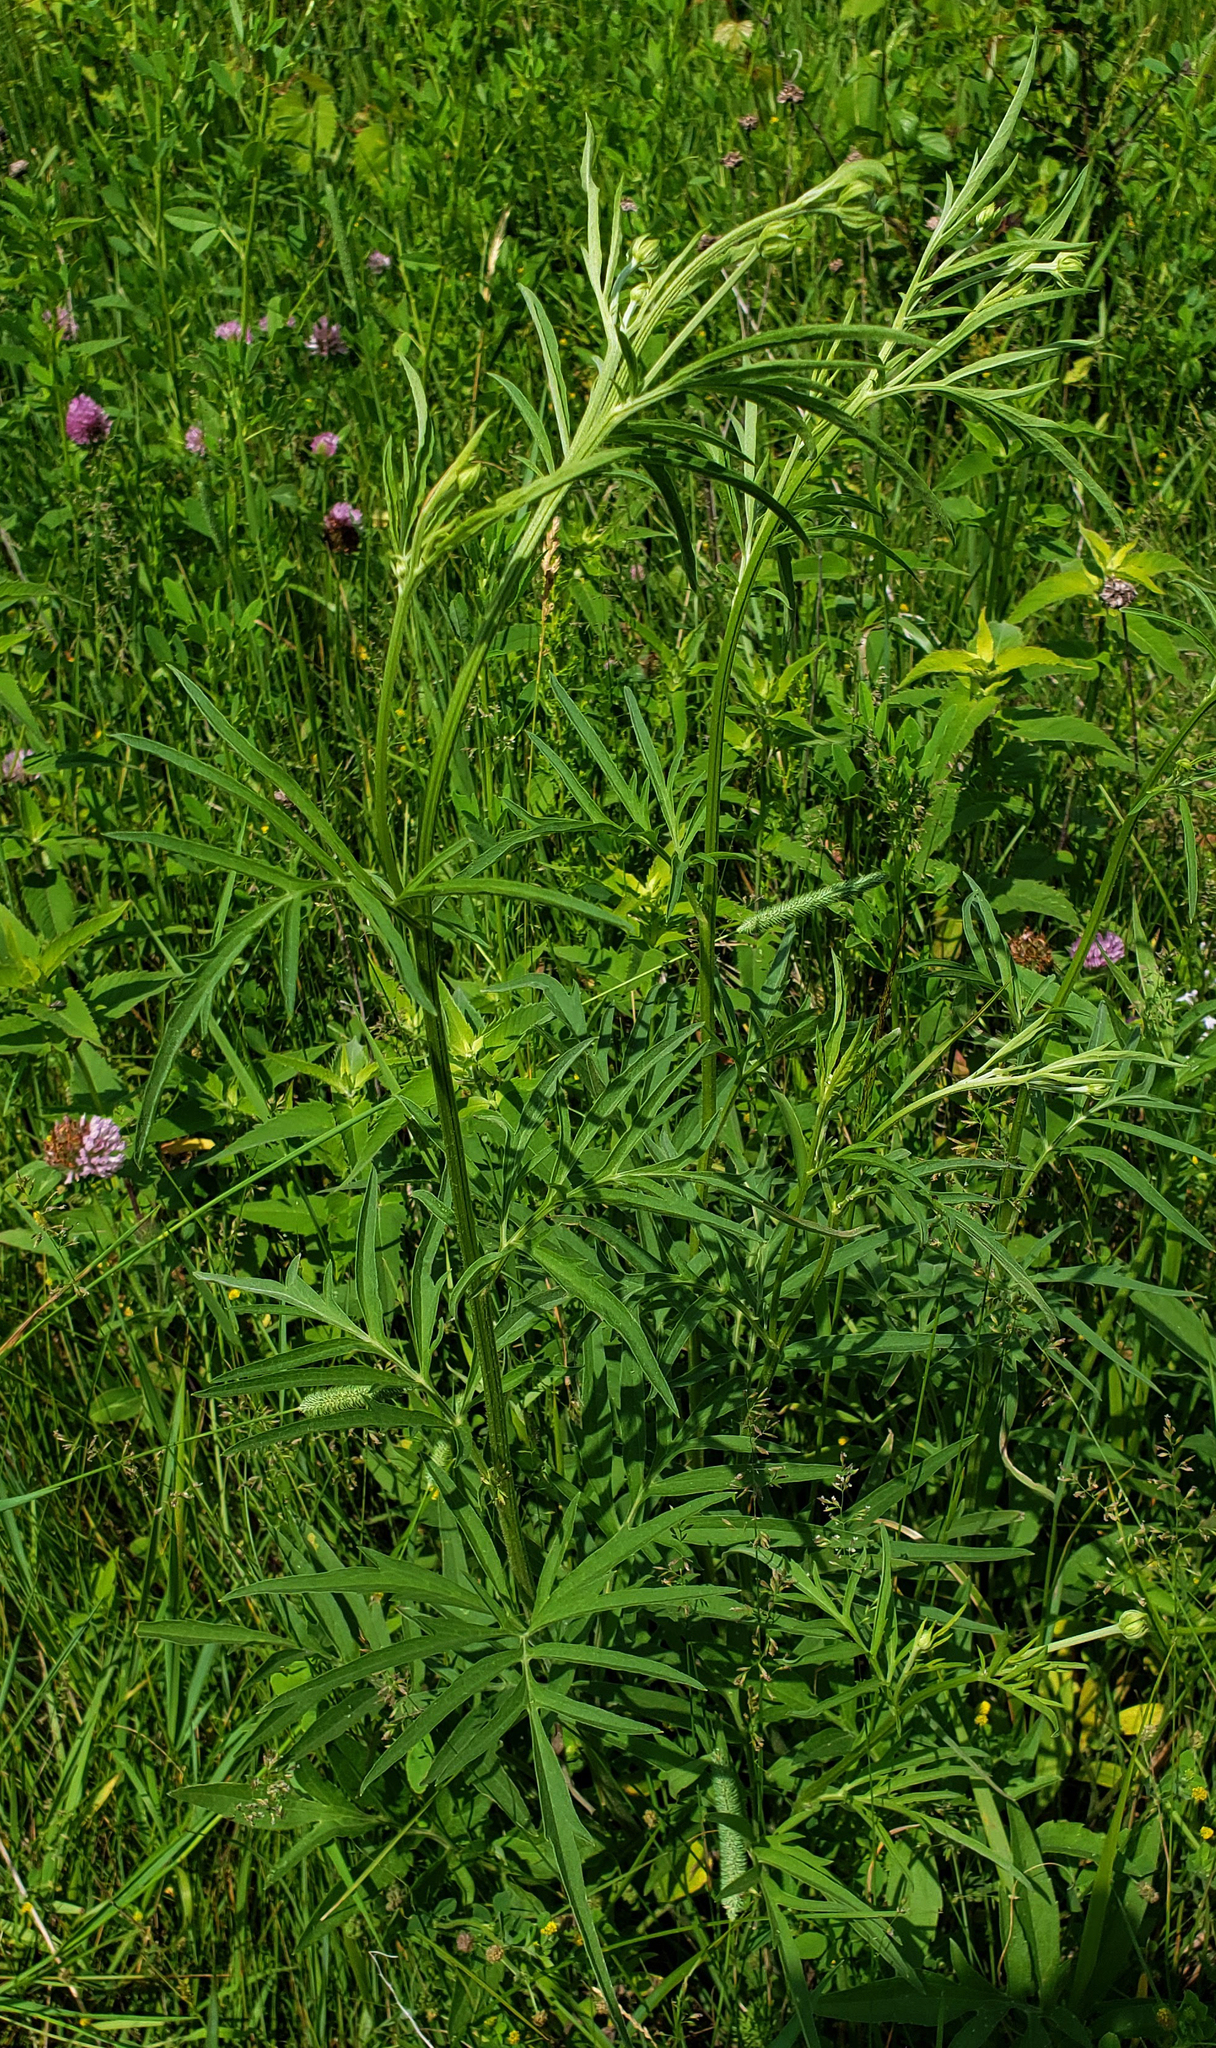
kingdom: Plantae
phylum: Tracheophyta
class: Magnoliopsida
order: Asterales
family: Asteraceae
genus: Ratibida
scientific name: Ratibida pinnata
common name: Drooping prairie-coneflower
